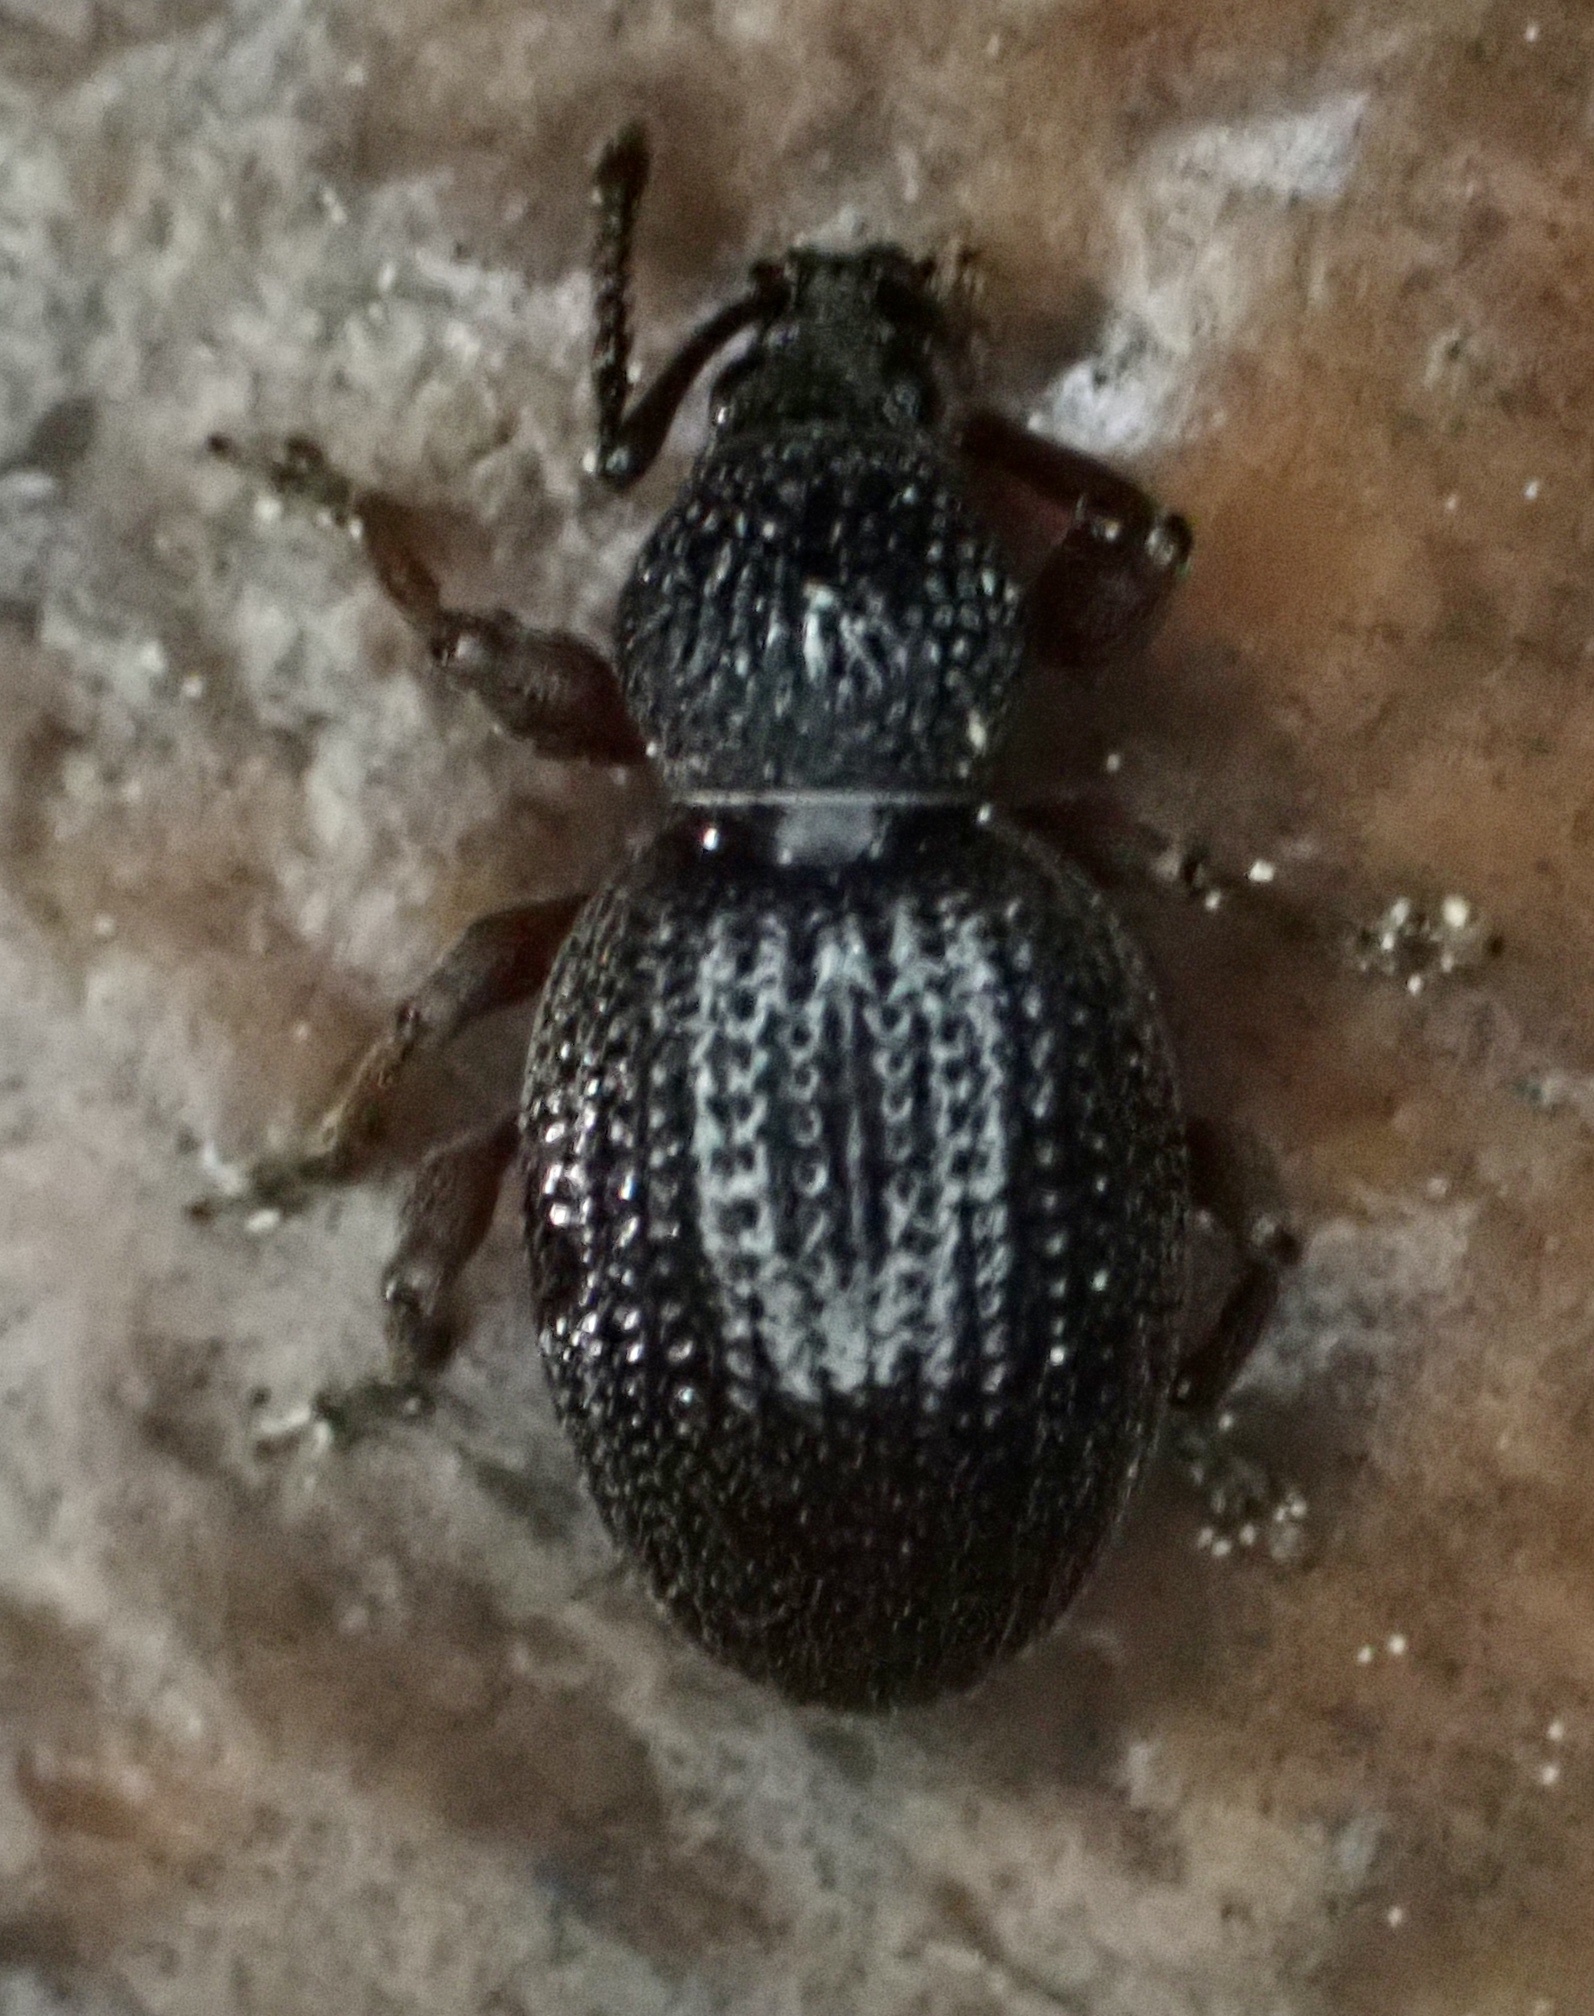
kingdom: Animalia
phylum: Arthropoda
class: Insecta
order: Coleoptera
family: Curculionidae
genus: Otiorhynchus
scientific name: Otiorhynchus ovatus
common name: Strawberry root weevil
